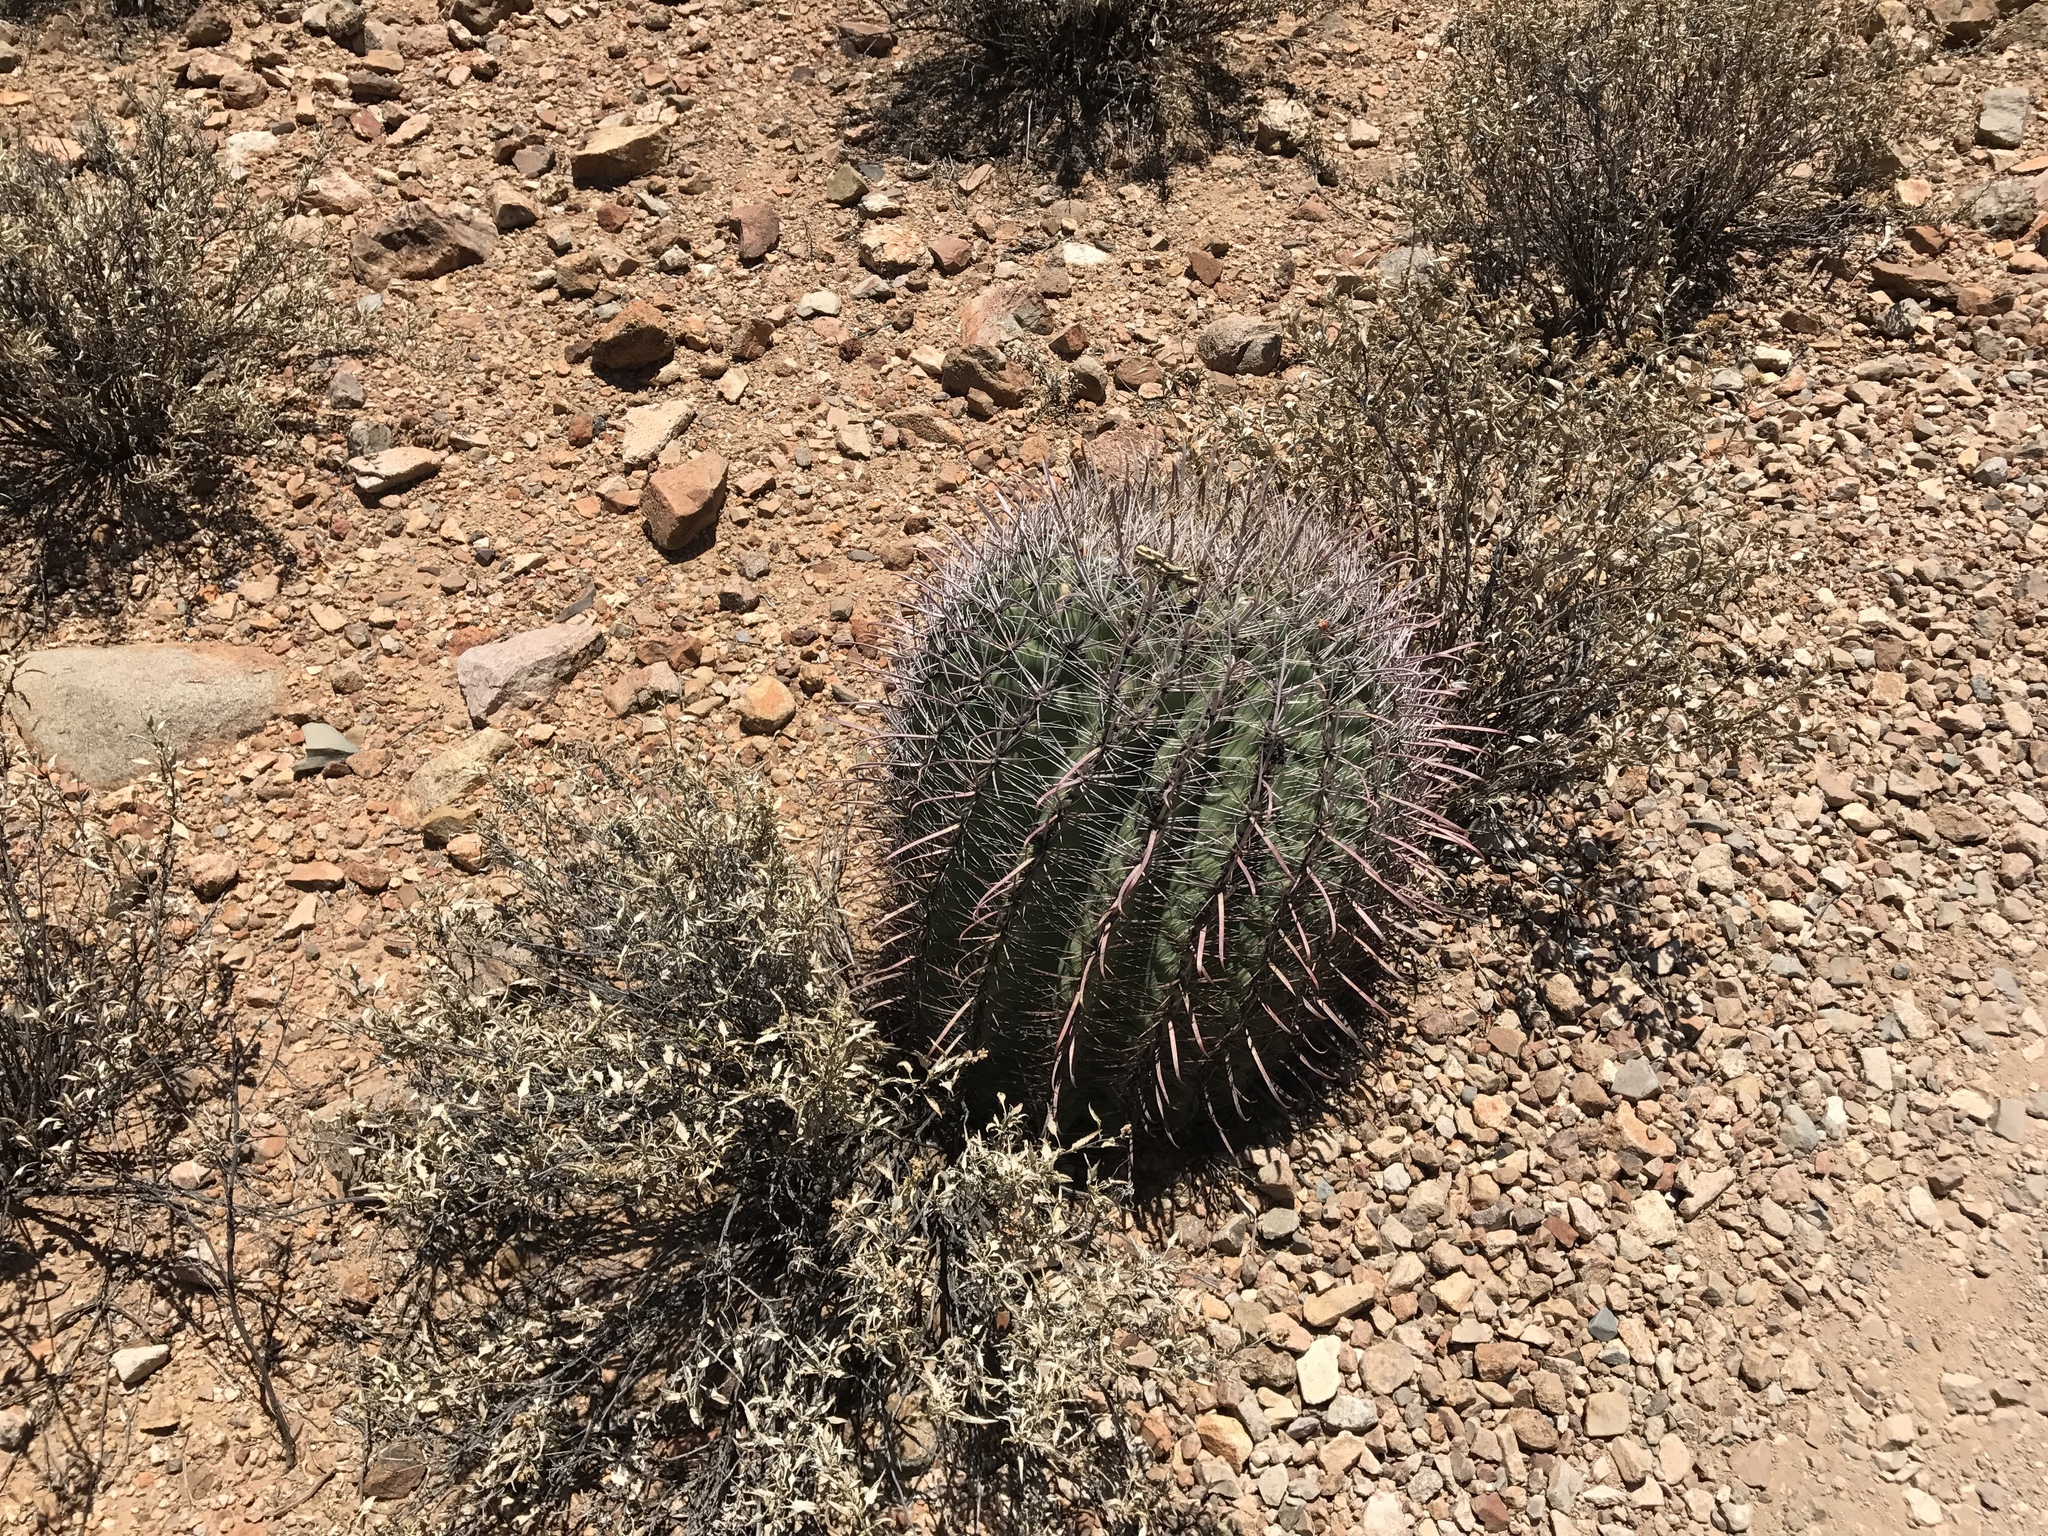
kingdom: Plantae
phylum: Tracheophyta
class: Magnoliopsida
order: Caryophyllales
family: Cactaceae
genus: Ferocactus
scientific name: Ferocactus wislizeni
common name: Candy barrel cactus
